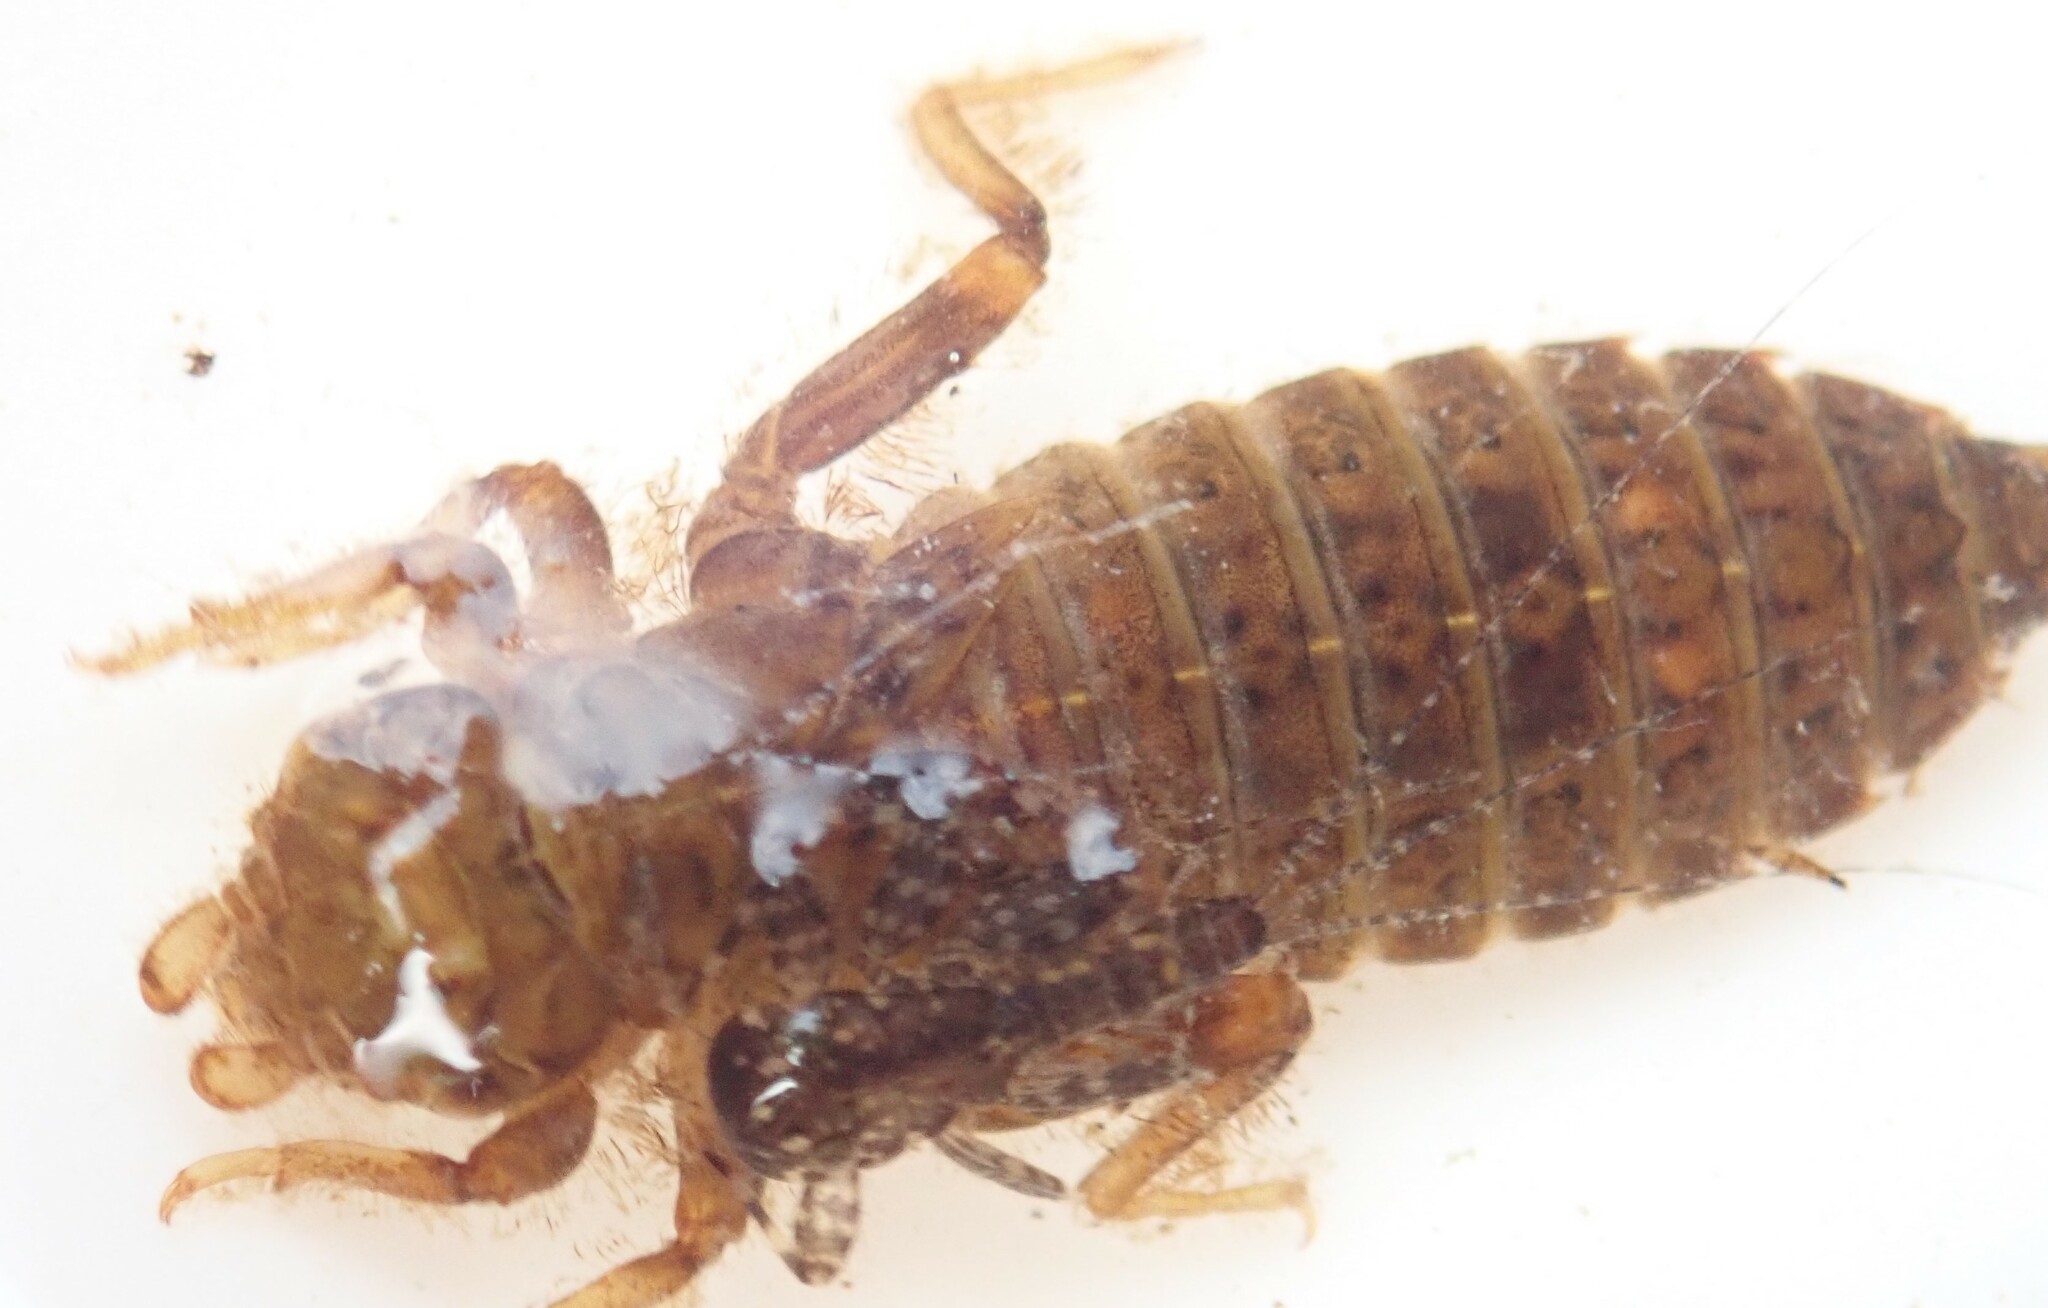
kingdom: Animalia
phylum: Arthropoda
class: Insecta
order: Odonata
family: Gomphidae
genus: Ophiogomphus
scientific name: Ophiogomphus anomalus
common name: Extra-striped snaketail
